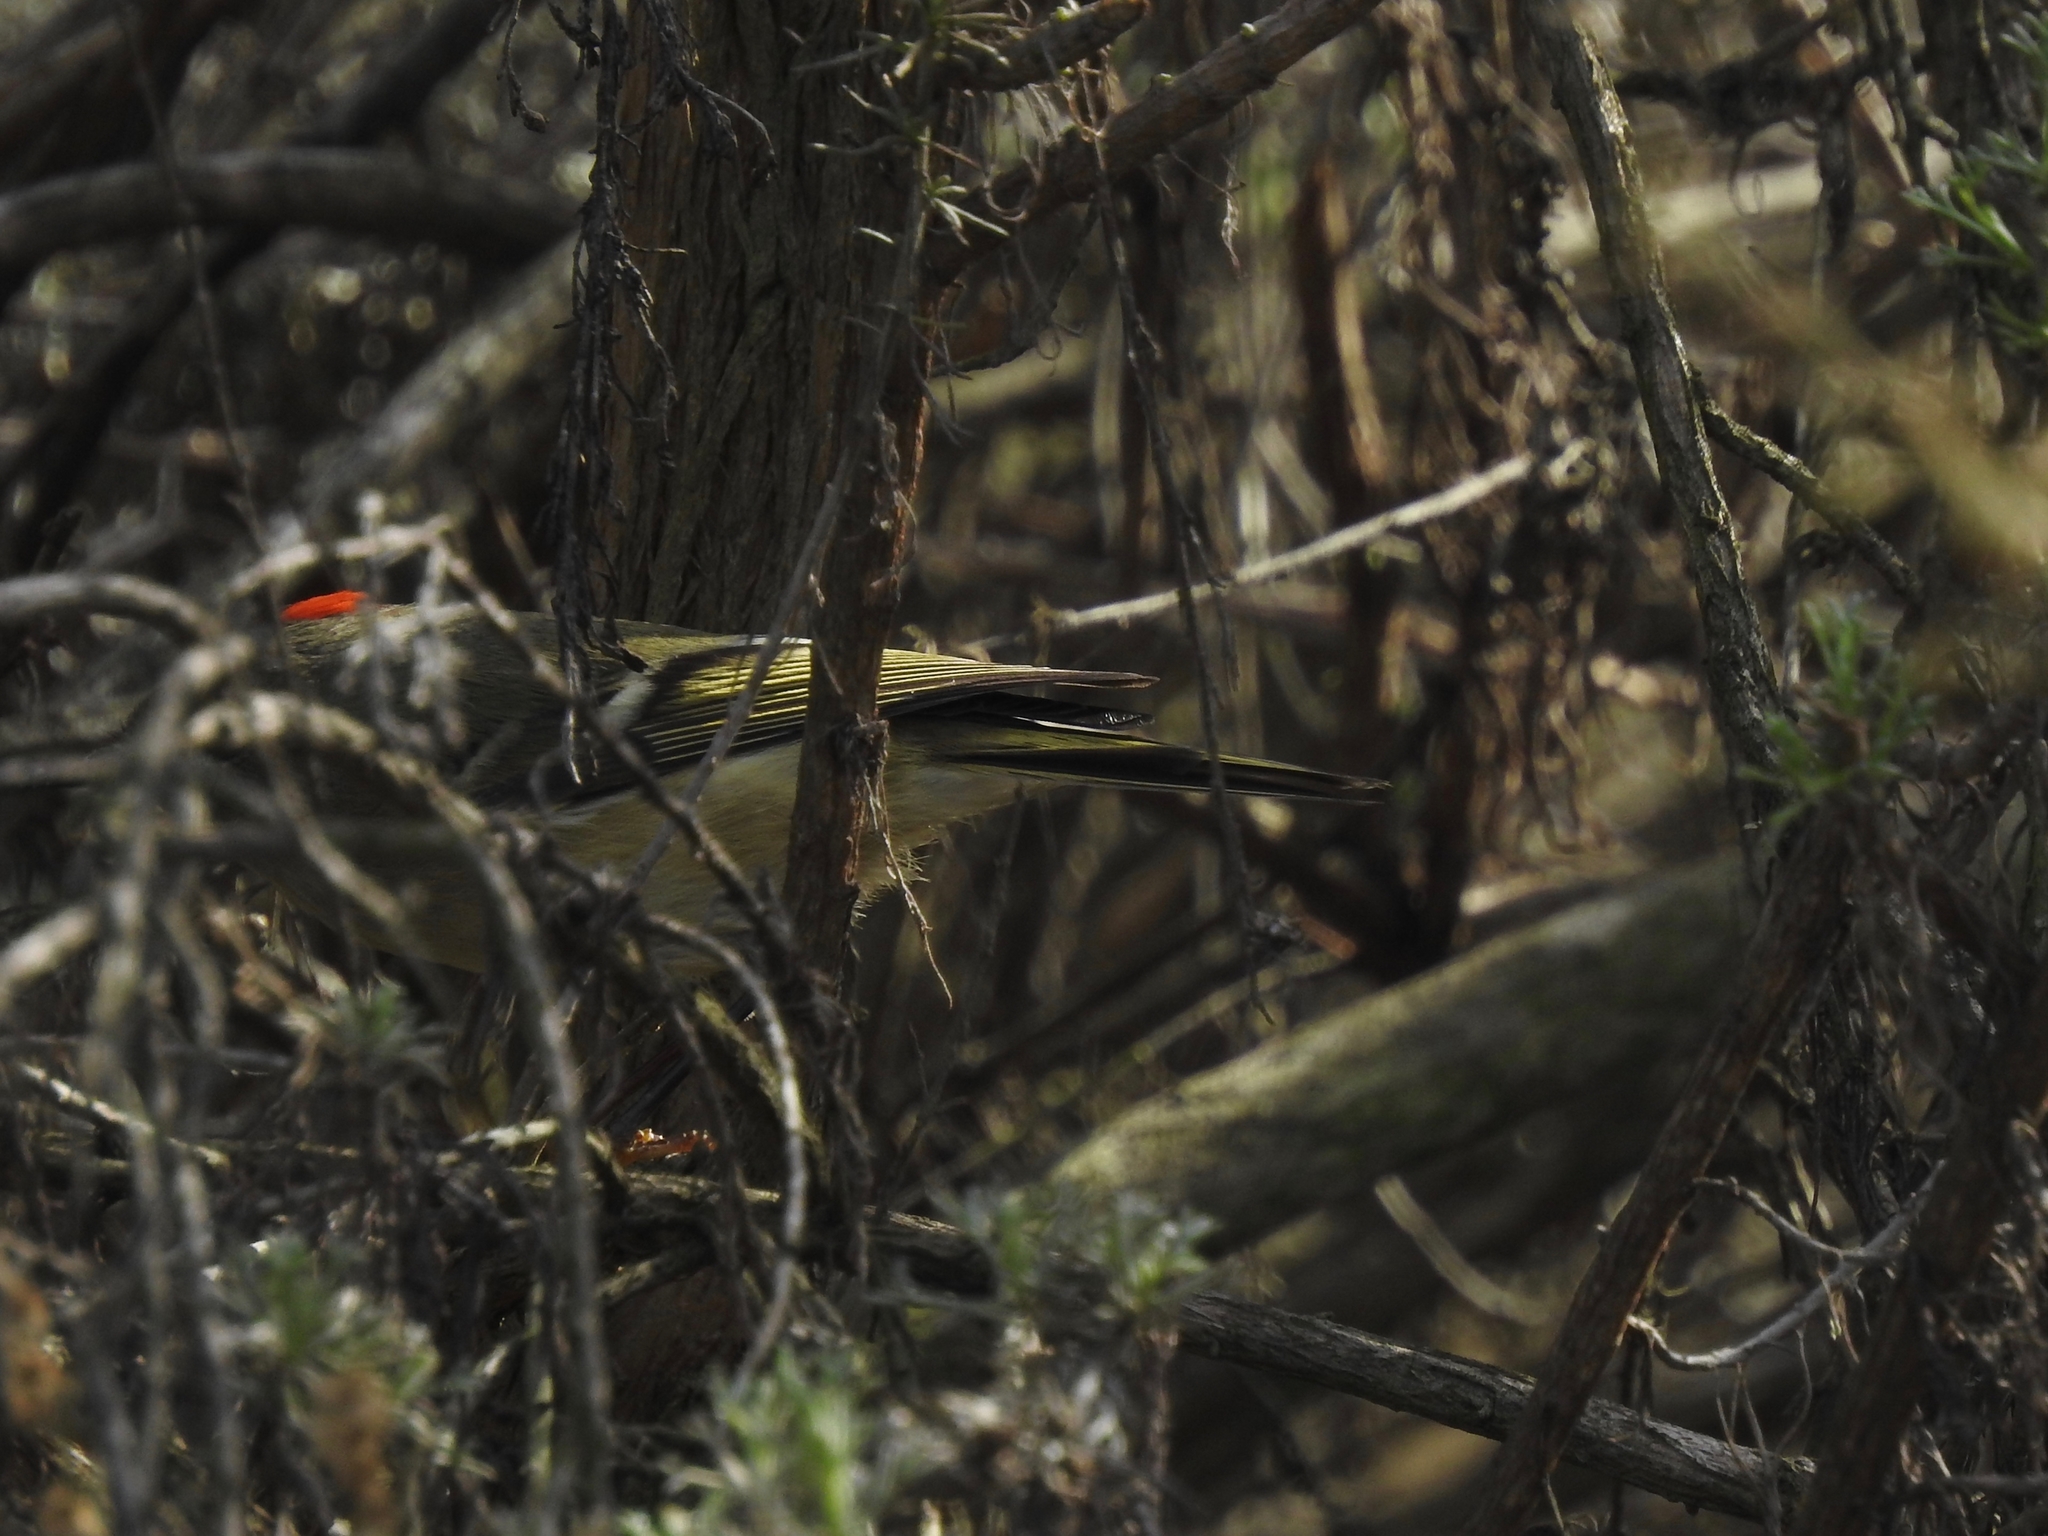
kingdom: Animalia
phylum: Chordata
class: Aves
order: Passeriformes
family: Regulidae
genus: Regulus
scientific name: Regulus calendula
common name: Ruby-crowned kinglet
